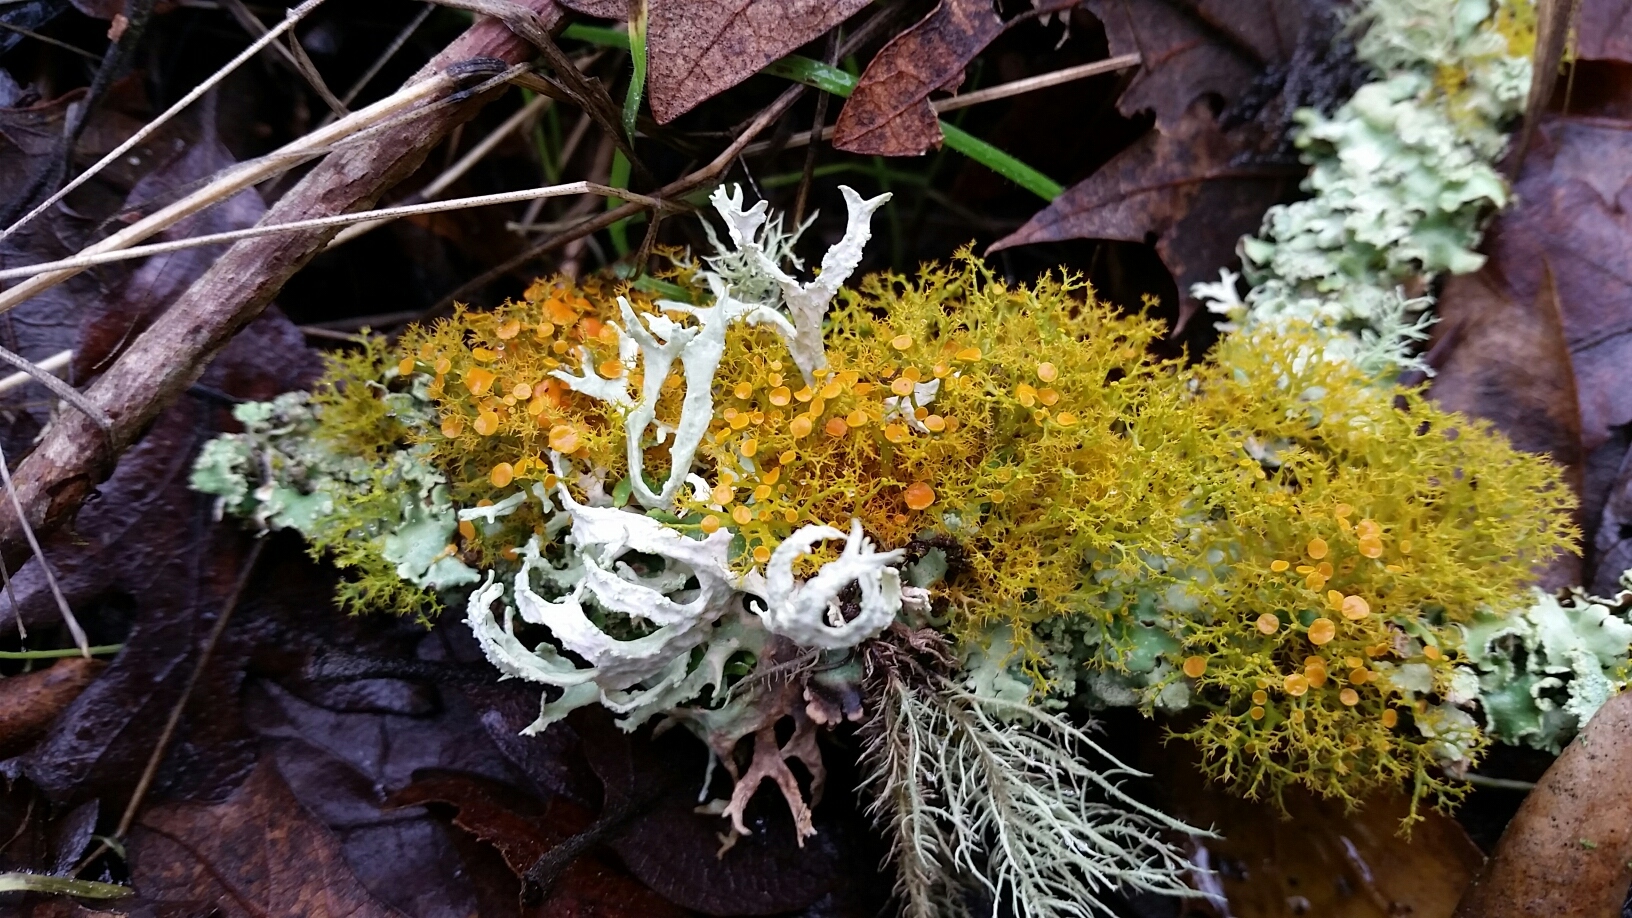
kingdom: Fungi
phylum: Ascomycota
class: Lecanoromycetes
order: Teloschistales
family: Teloschistaceae
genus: Teloschistes
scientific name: Teloschistes flavicans
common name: Golden hair-lichen
